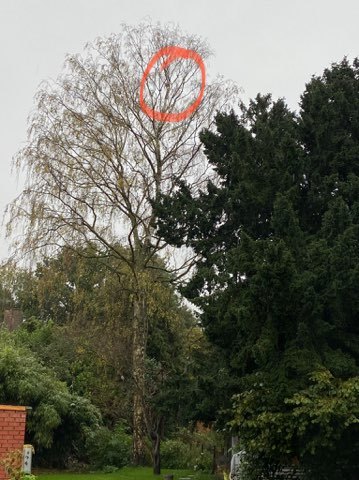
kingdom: Animalia
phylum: Arthropoda
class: Insecta
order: Hymenoptera
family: Vespidae
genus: Vespa
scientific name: Vespa velutina
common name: Asian hornet
